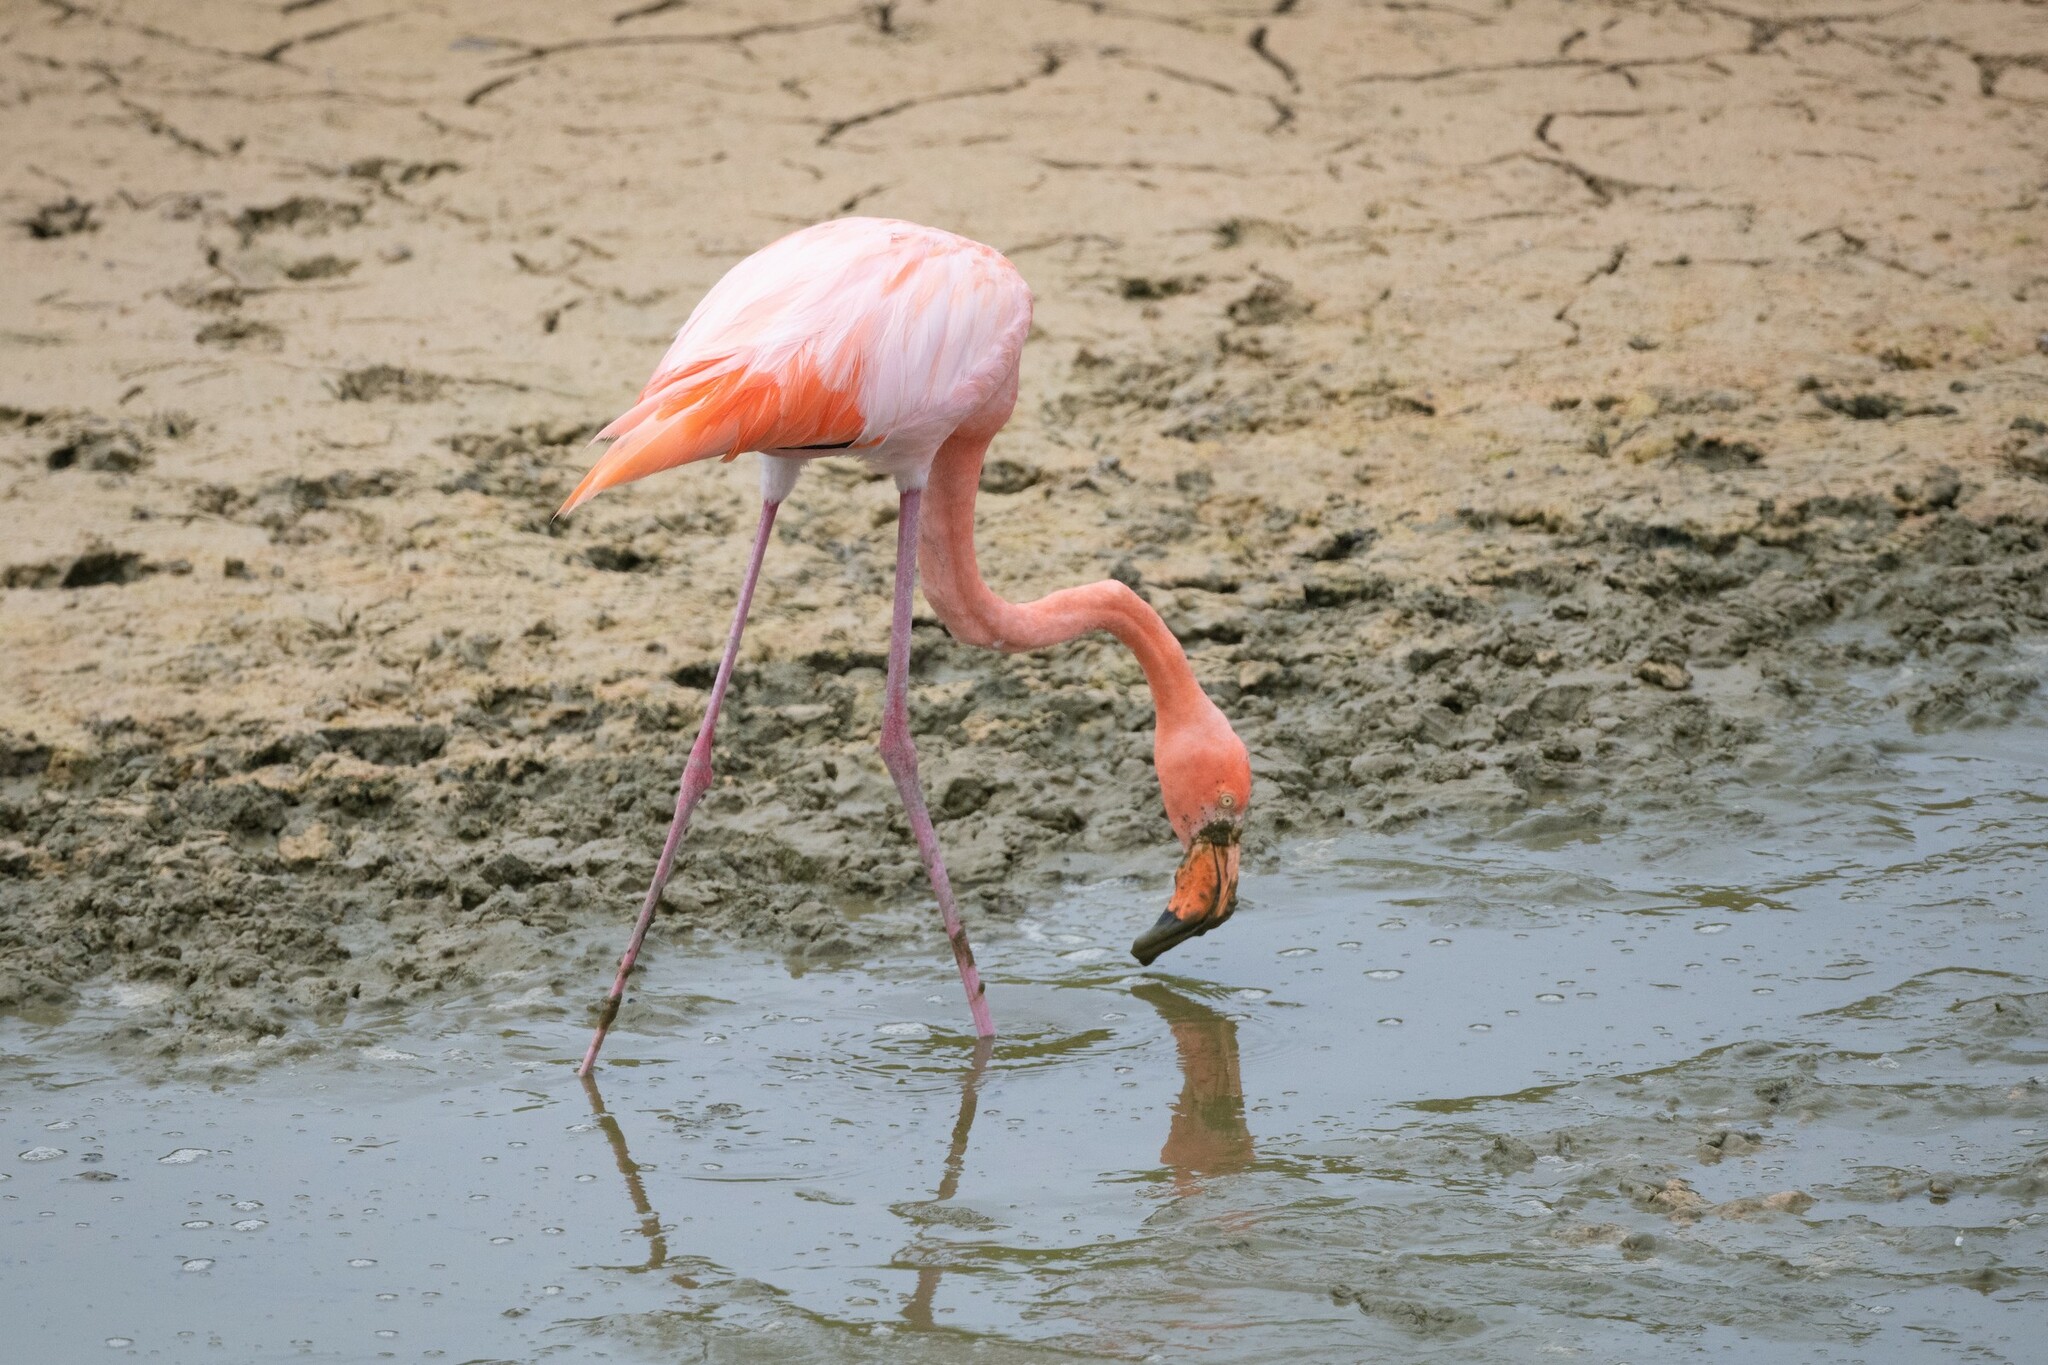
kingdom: Animalia
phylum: Chordata
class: Aves
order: Phoenicopteriformes
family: Phoenicopteridae
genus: Phoenicopterus
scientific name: Phoenicopterus ruber
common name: American flamingo
